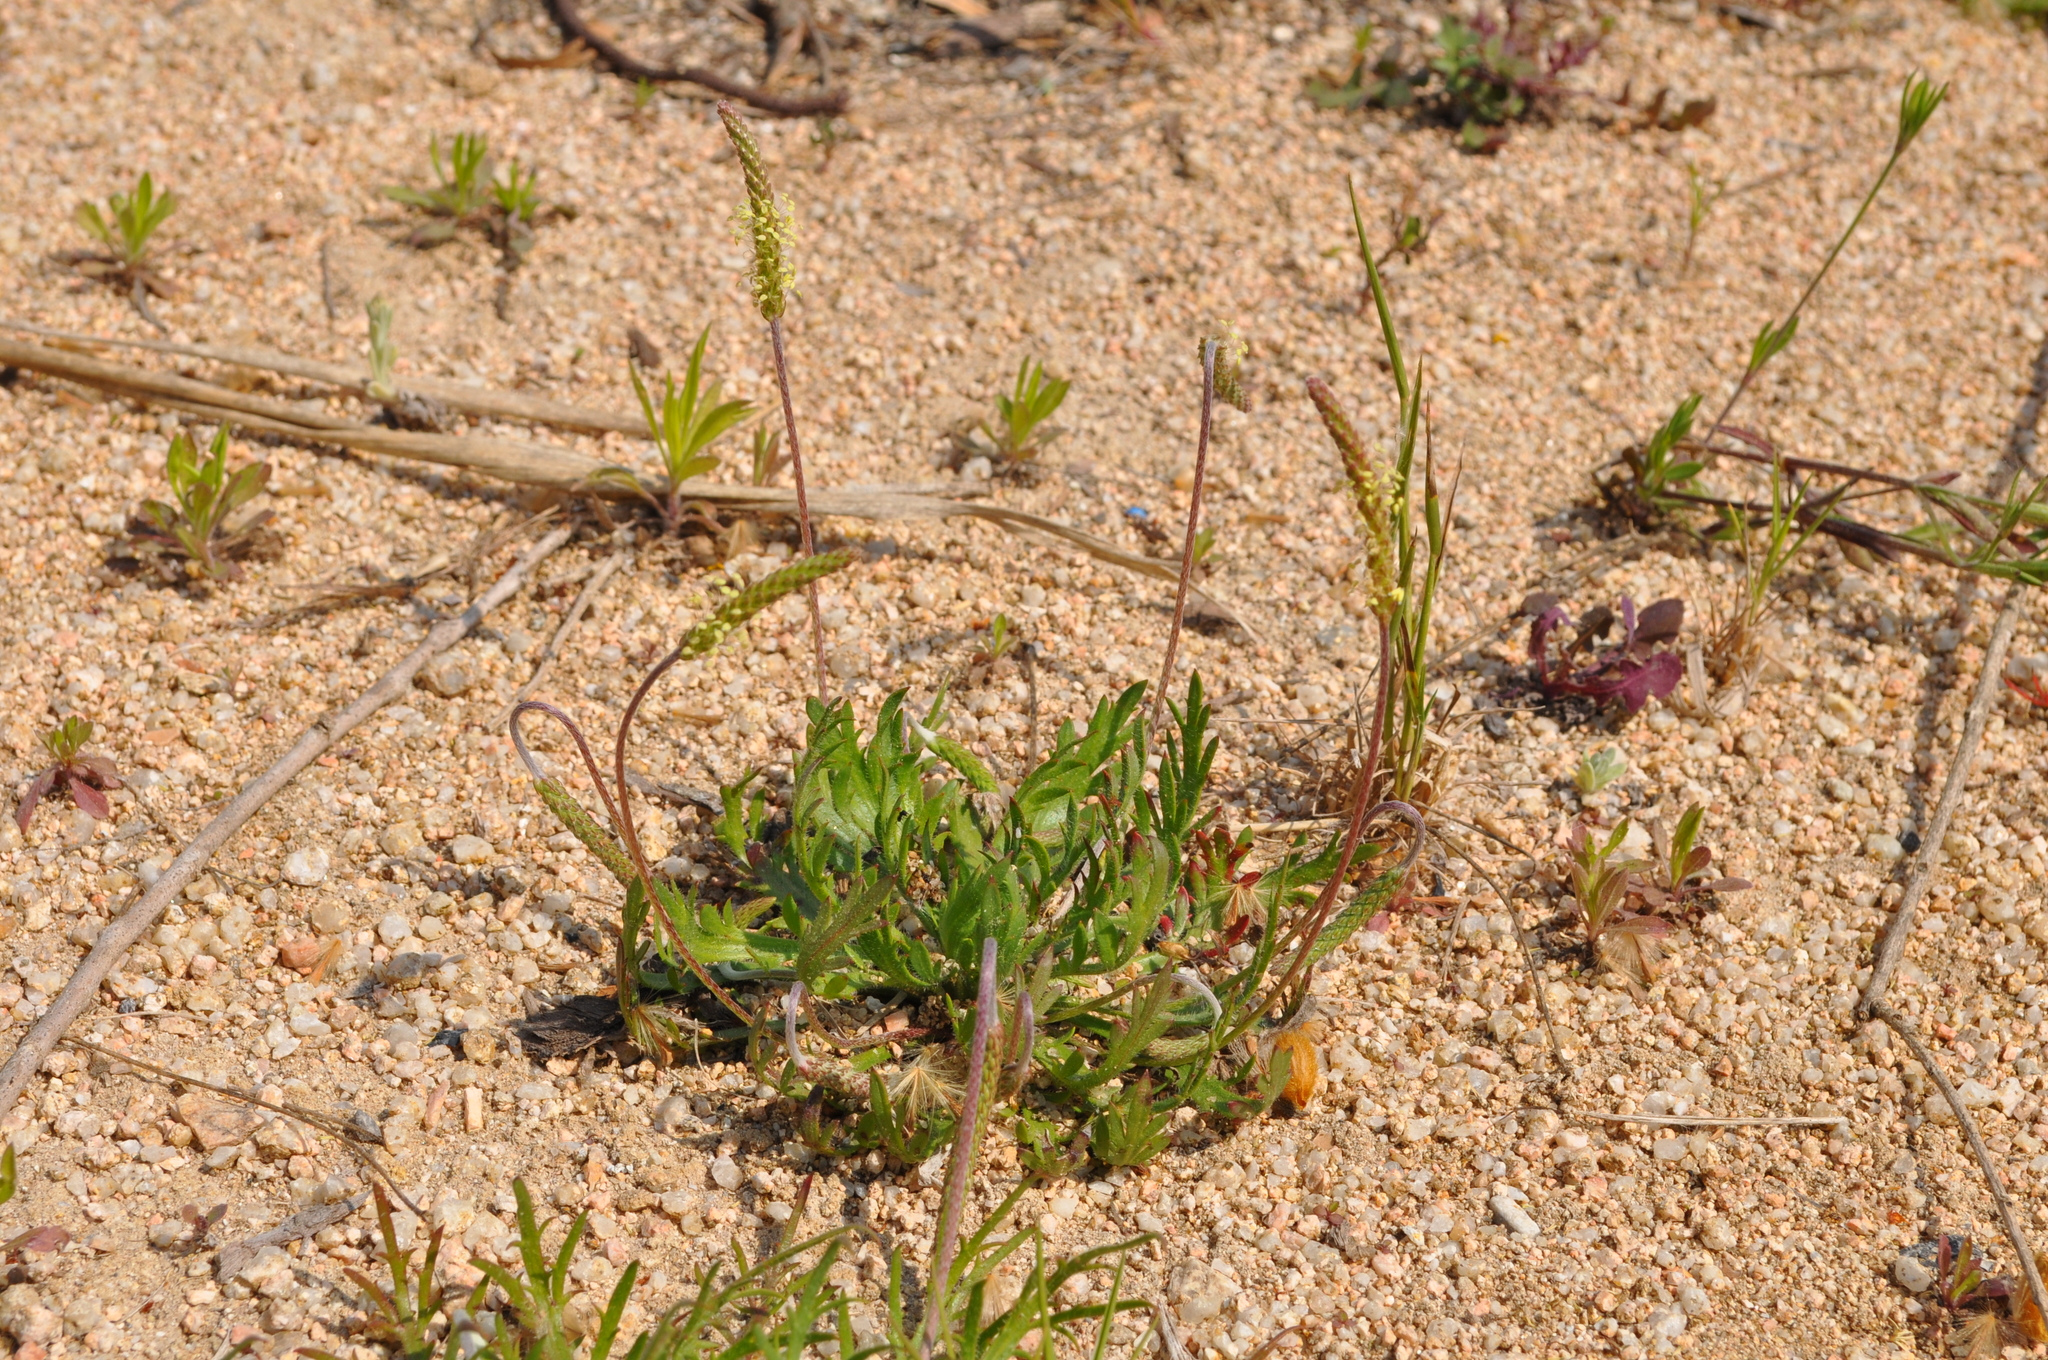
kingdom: Plantae
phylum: Tracheophyta
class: Magnoliopsida
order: Lamiales
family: Plantaginaceae
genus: Plantago
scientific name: Plantago coronopus
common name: Buck's-horn plantain
